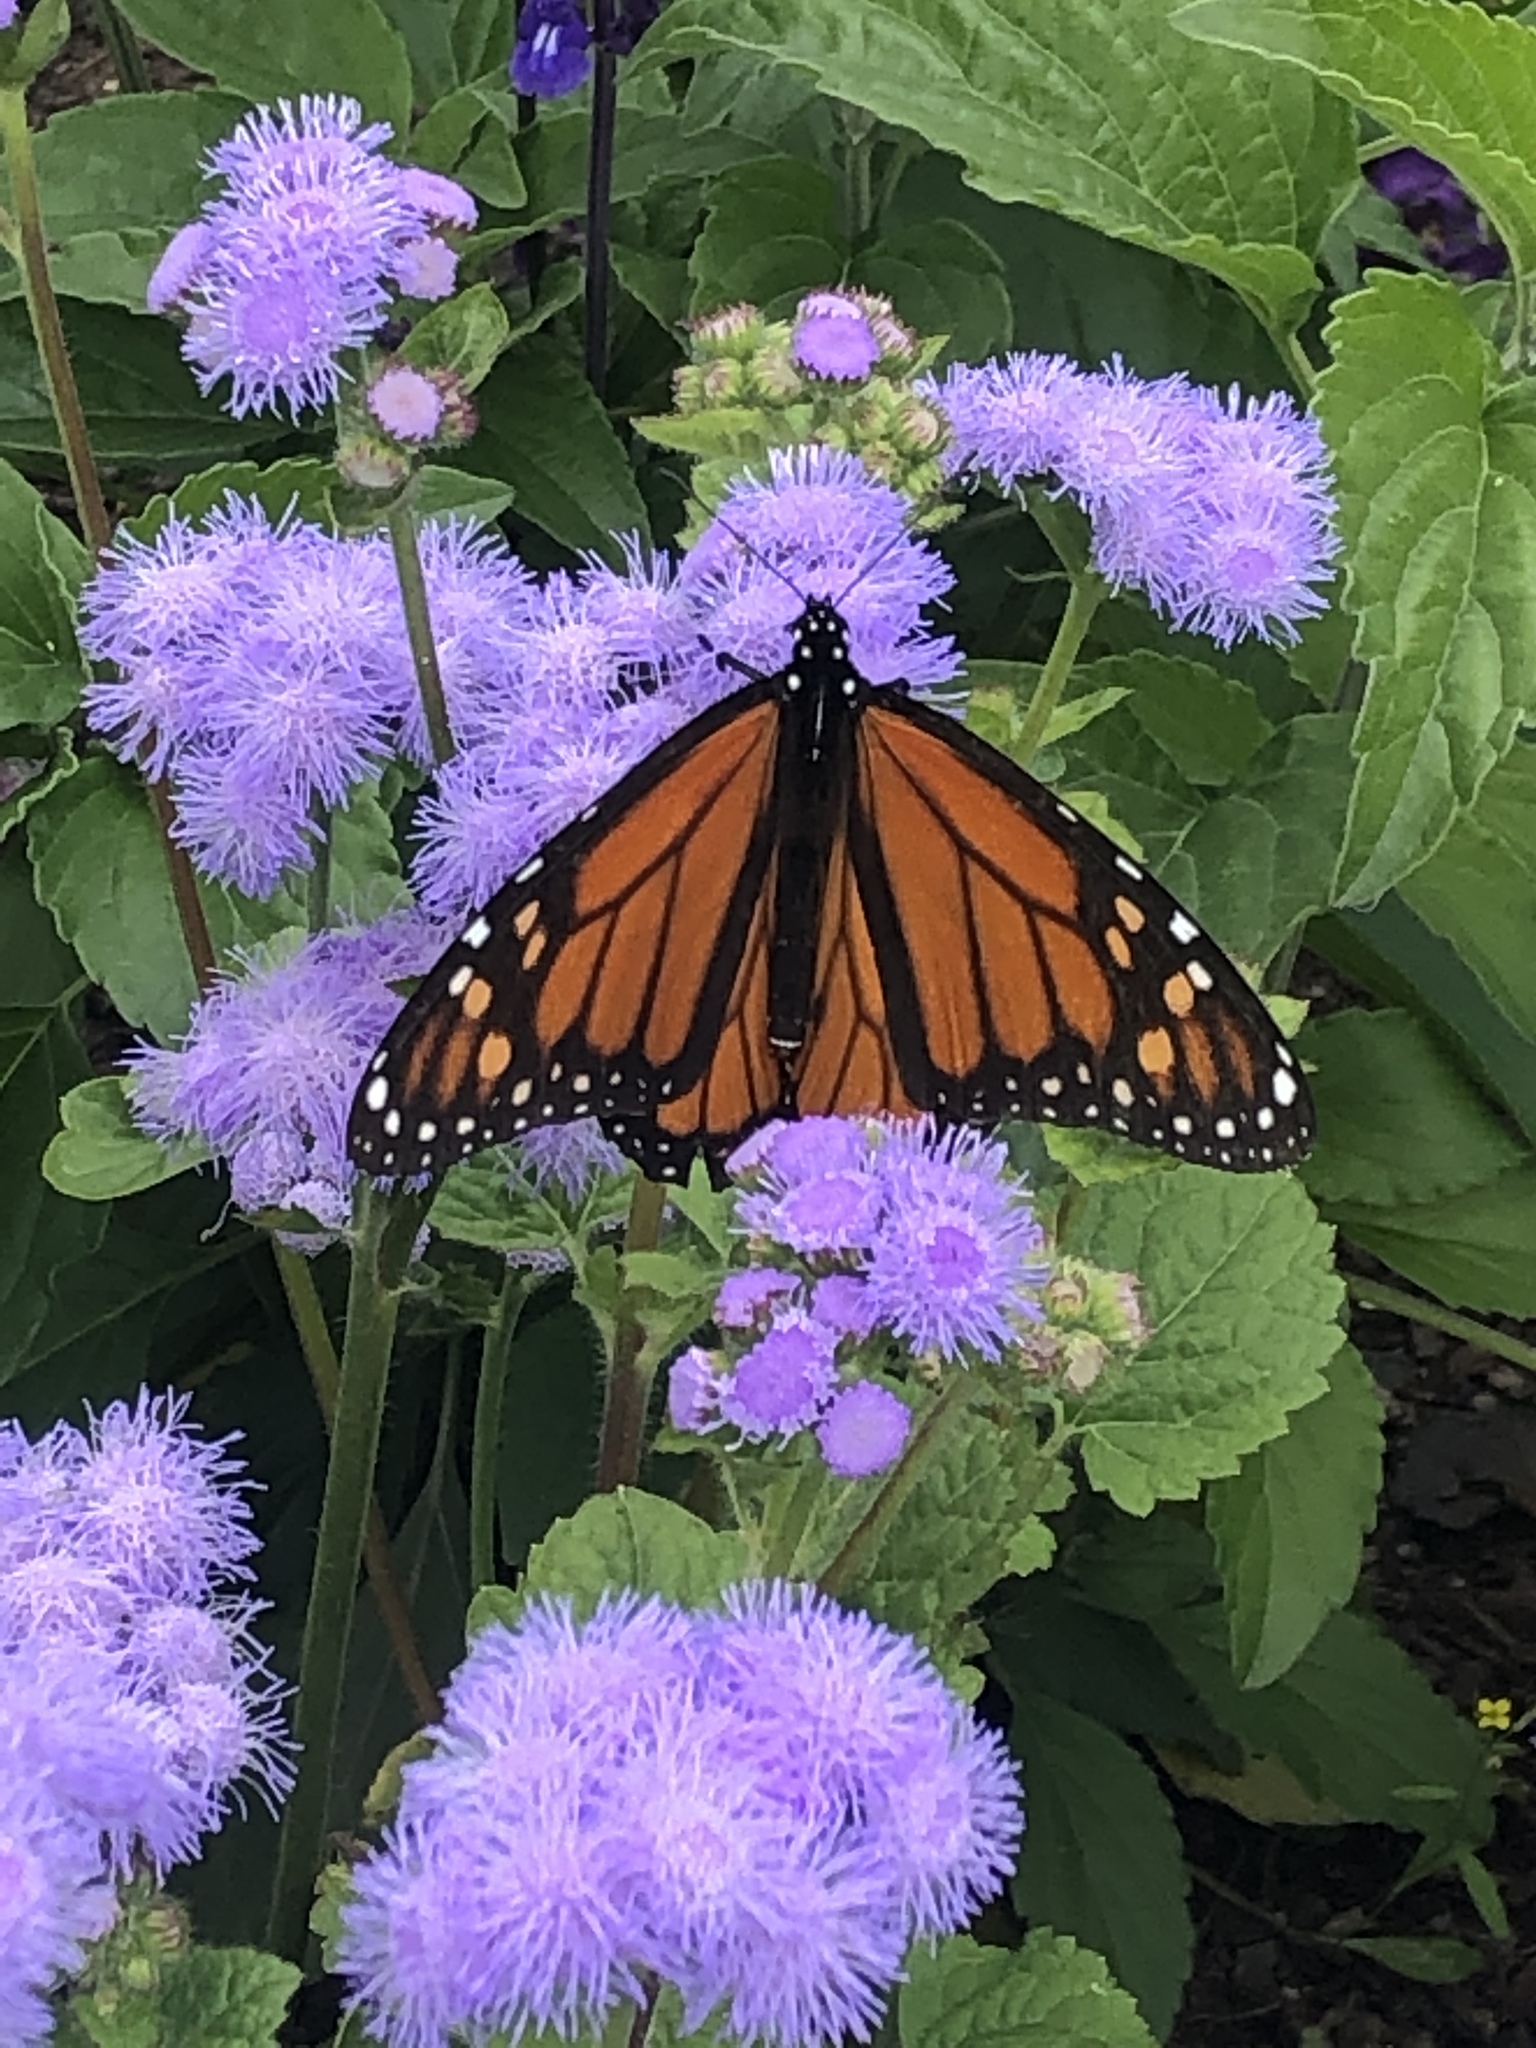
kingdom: Animalia
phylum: Arthropoda
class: Insecta
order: Lepidoptera
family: Nymphalidae
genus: Danaus
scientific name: Danaus plexippus
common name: Monarch
